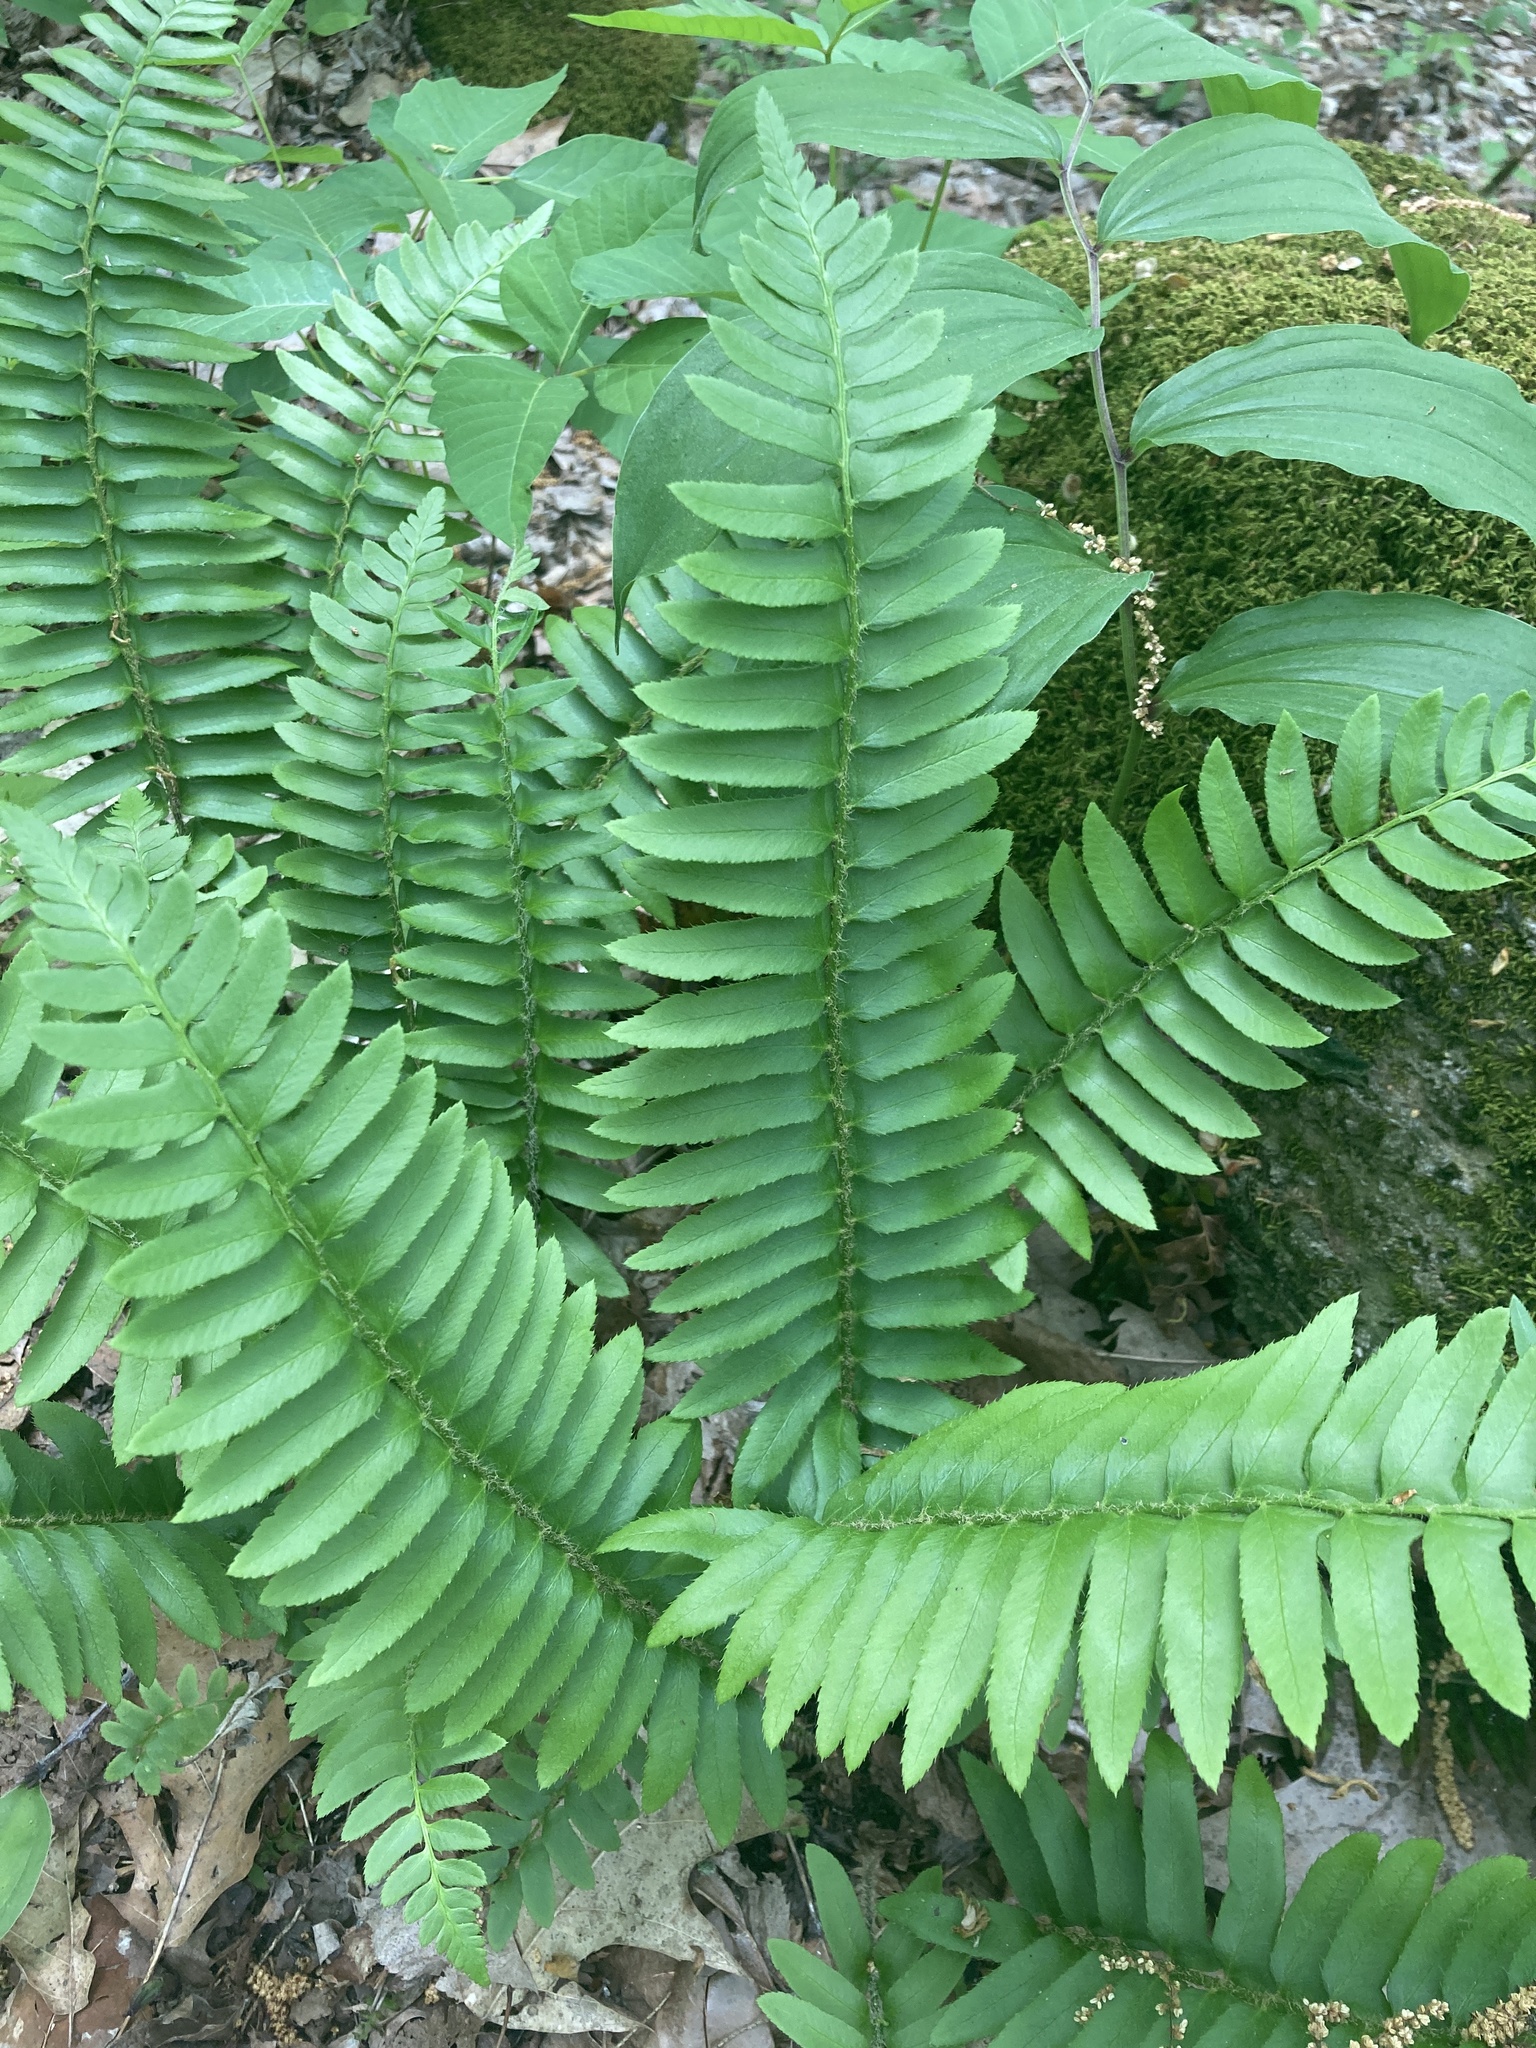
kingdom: Plantae
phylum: Tracheophyta
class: Polypodiopsida
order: Polypodiales
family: Dryopteridaceae
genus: Polystichum
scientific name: Polystichum acrostichoides
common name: Christmas fern
